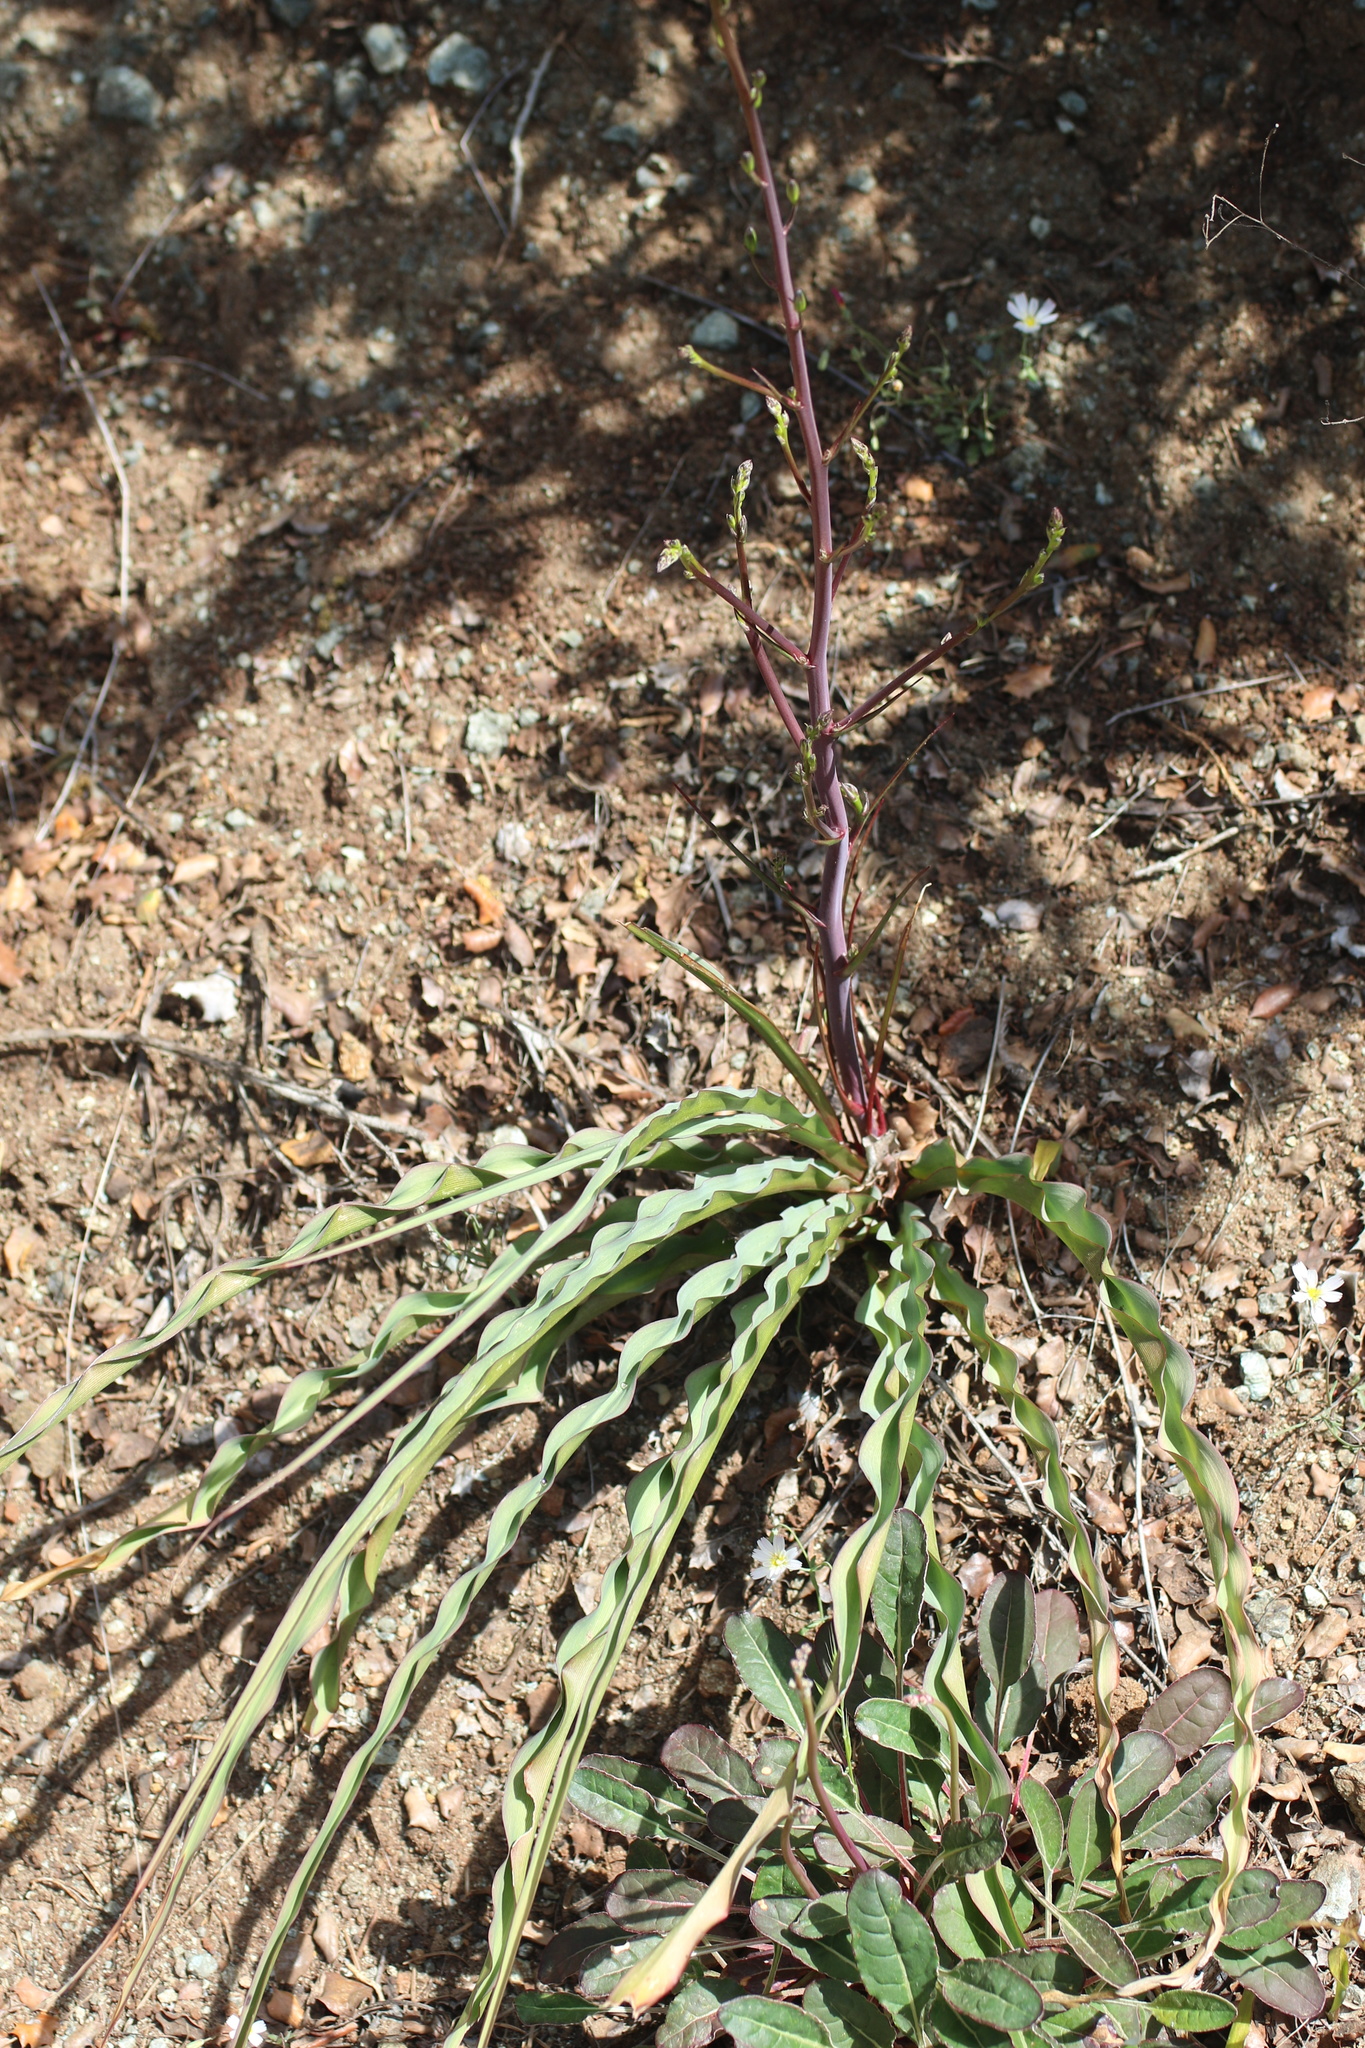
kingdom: Plantae
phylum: Tracheophyta
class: Liliopsida
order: Asparagales
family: Asparagaceae
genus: Chlorogalum
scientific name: Chlorogalum pomeridianum
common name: Amole
